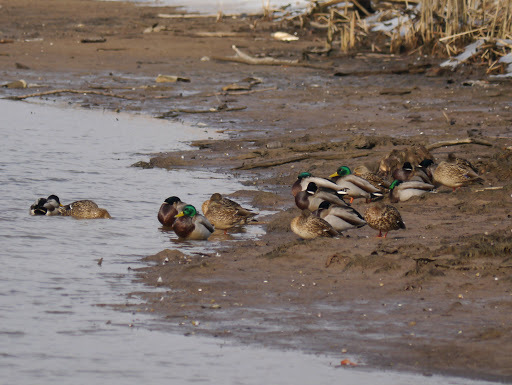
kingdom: Animalia
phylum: Chordata
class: Aves
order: Anseriformes
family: Anatidae
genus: Anas
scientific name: Anas platyrhynchos
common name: Mallard
